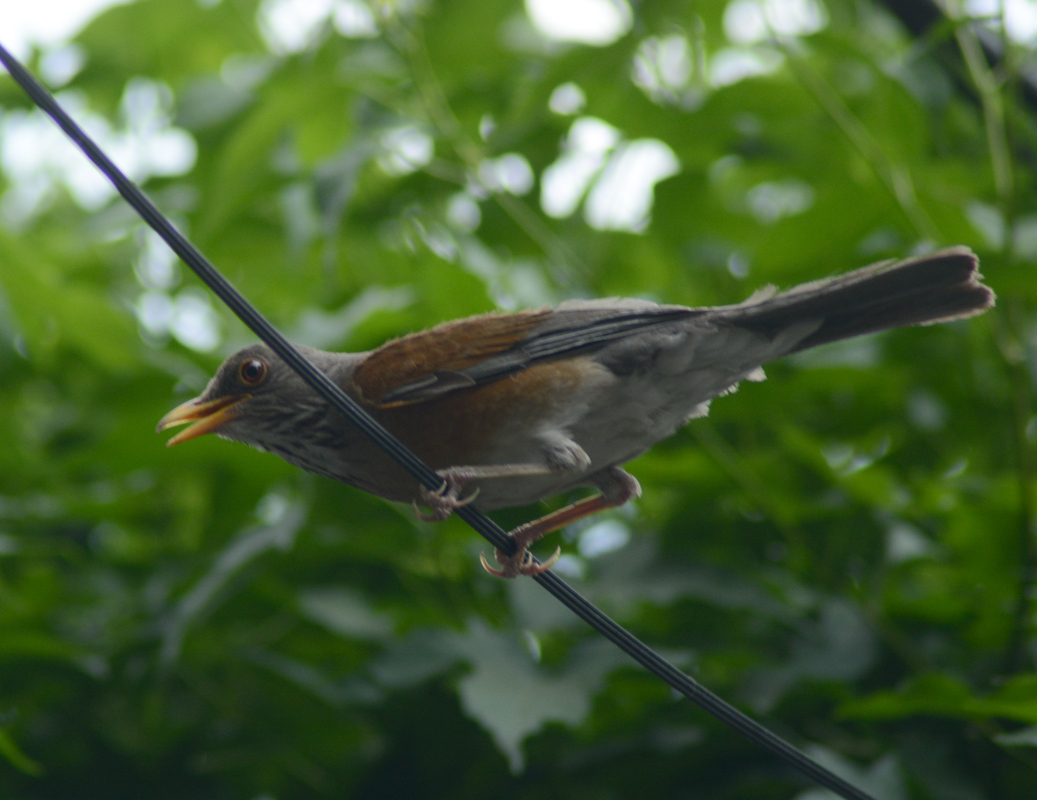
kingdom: Animalia
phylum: Chordata
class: Aves
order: Passeriformes
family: Turdidae
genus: Turdus
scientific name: Turdus rufopalliatus
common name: Rufous-backed robin
